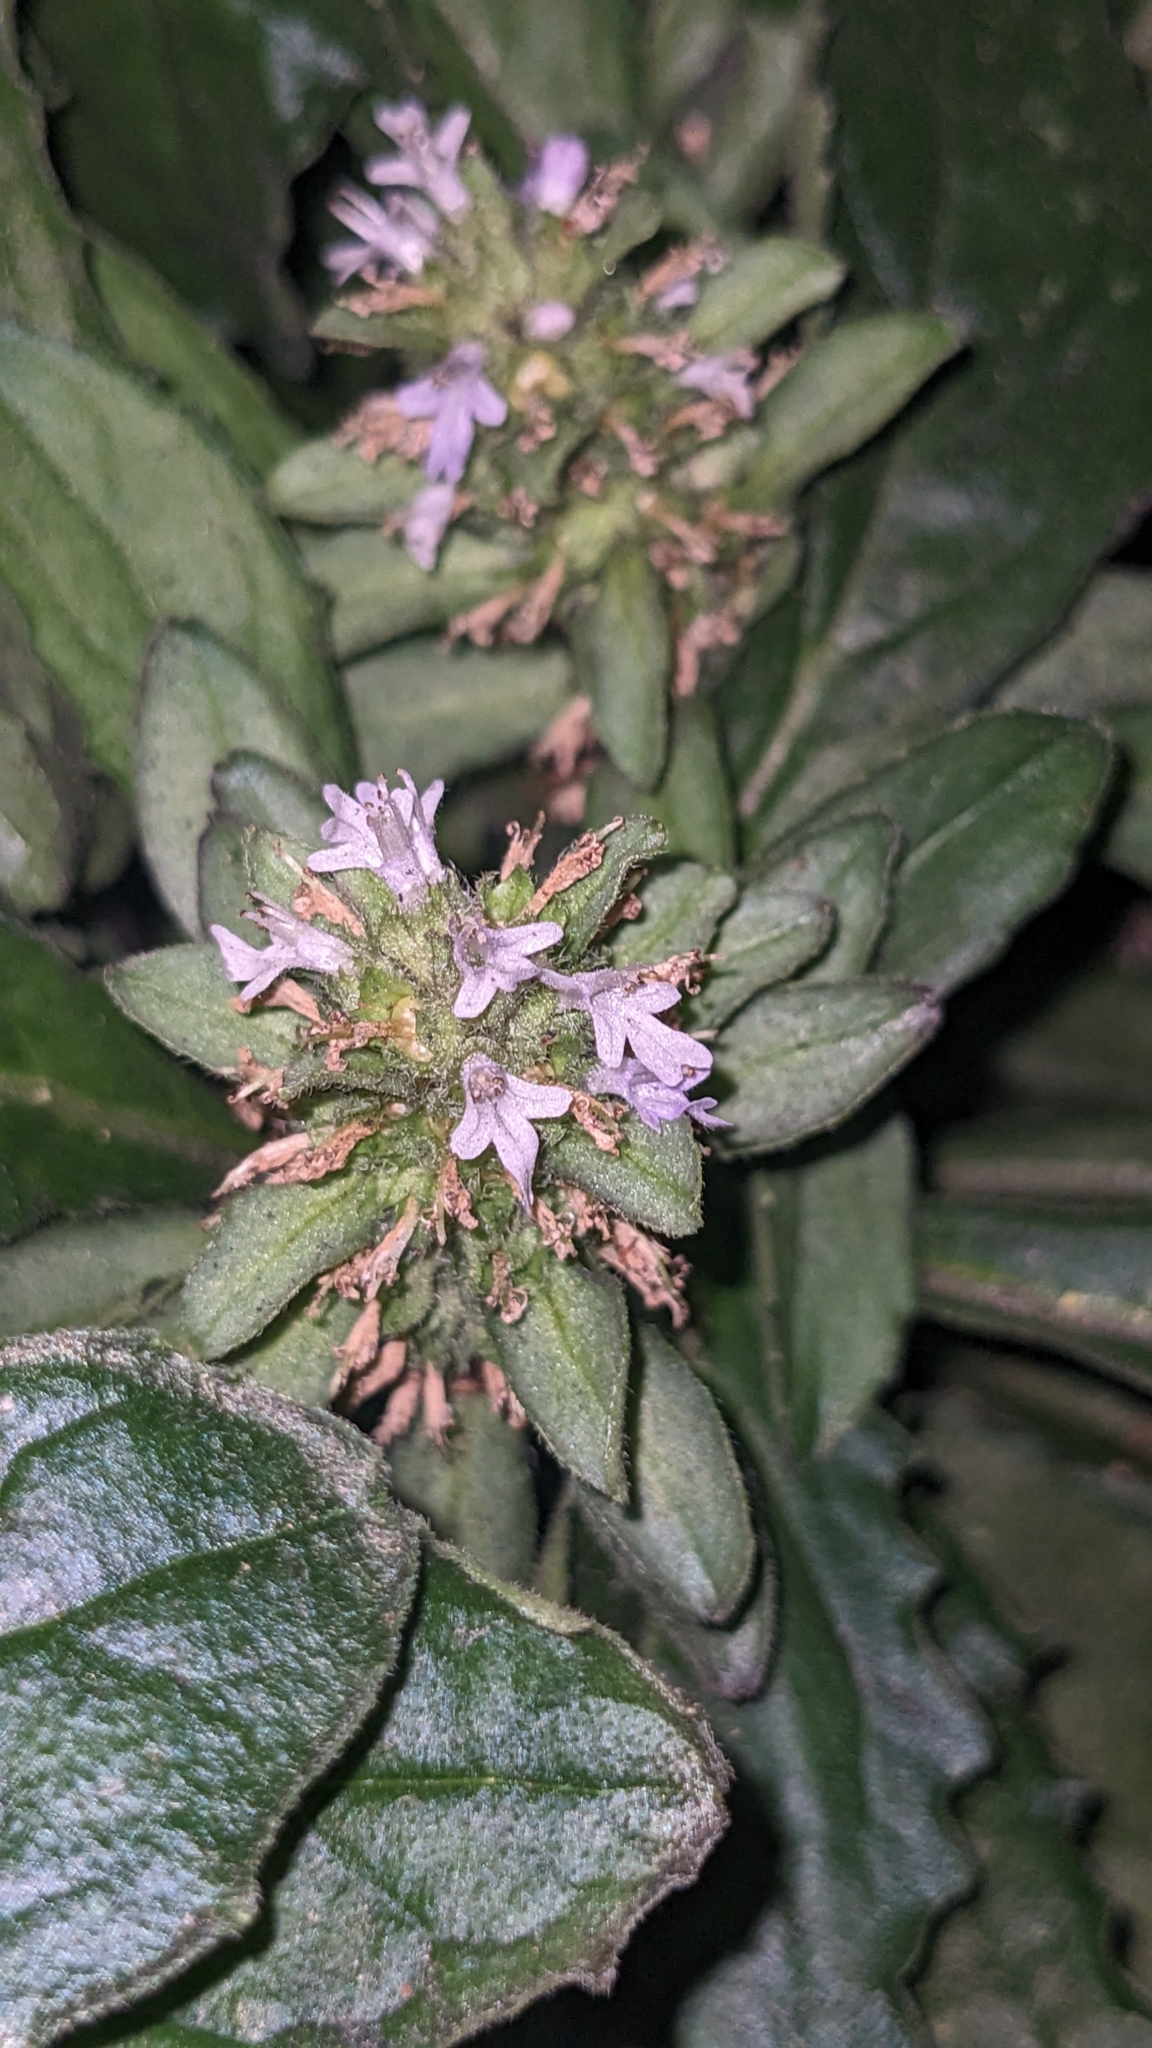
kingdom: Plantae
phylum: Tracheophyta
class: Magnoliopsida
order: Lamiales
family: Lamiaceae
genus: Ajuga
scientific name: Ajuga taiwanensis
